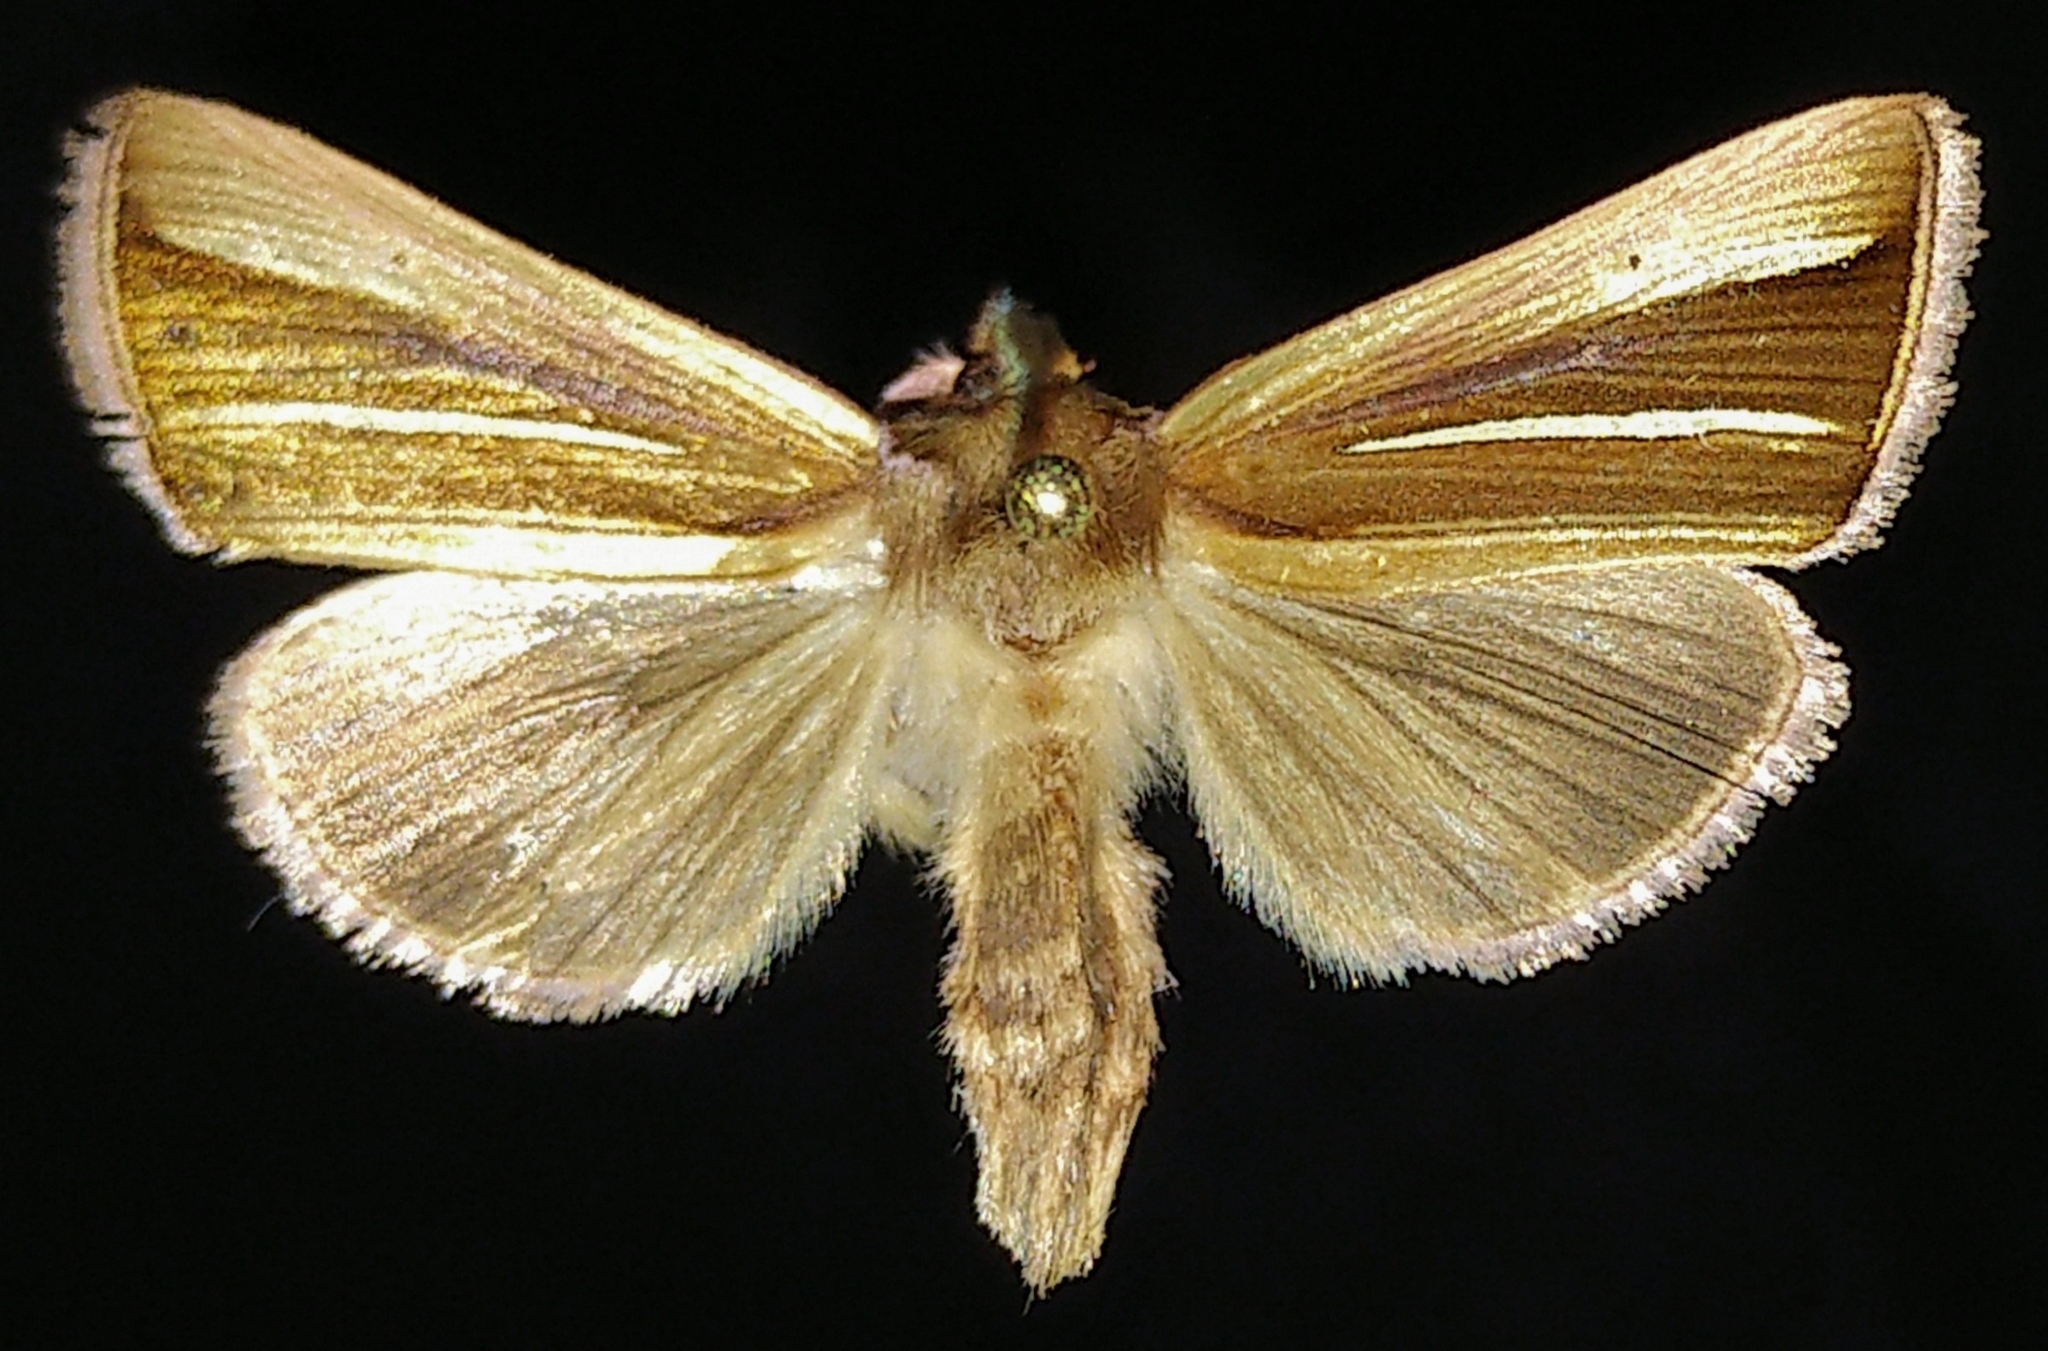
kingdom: Animalia
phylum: Arthropoda
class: Insecta
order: Lepidoptera
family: Noctuidae
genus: Plusia
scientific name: Plusia venusta
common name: White-streaked looper moth
